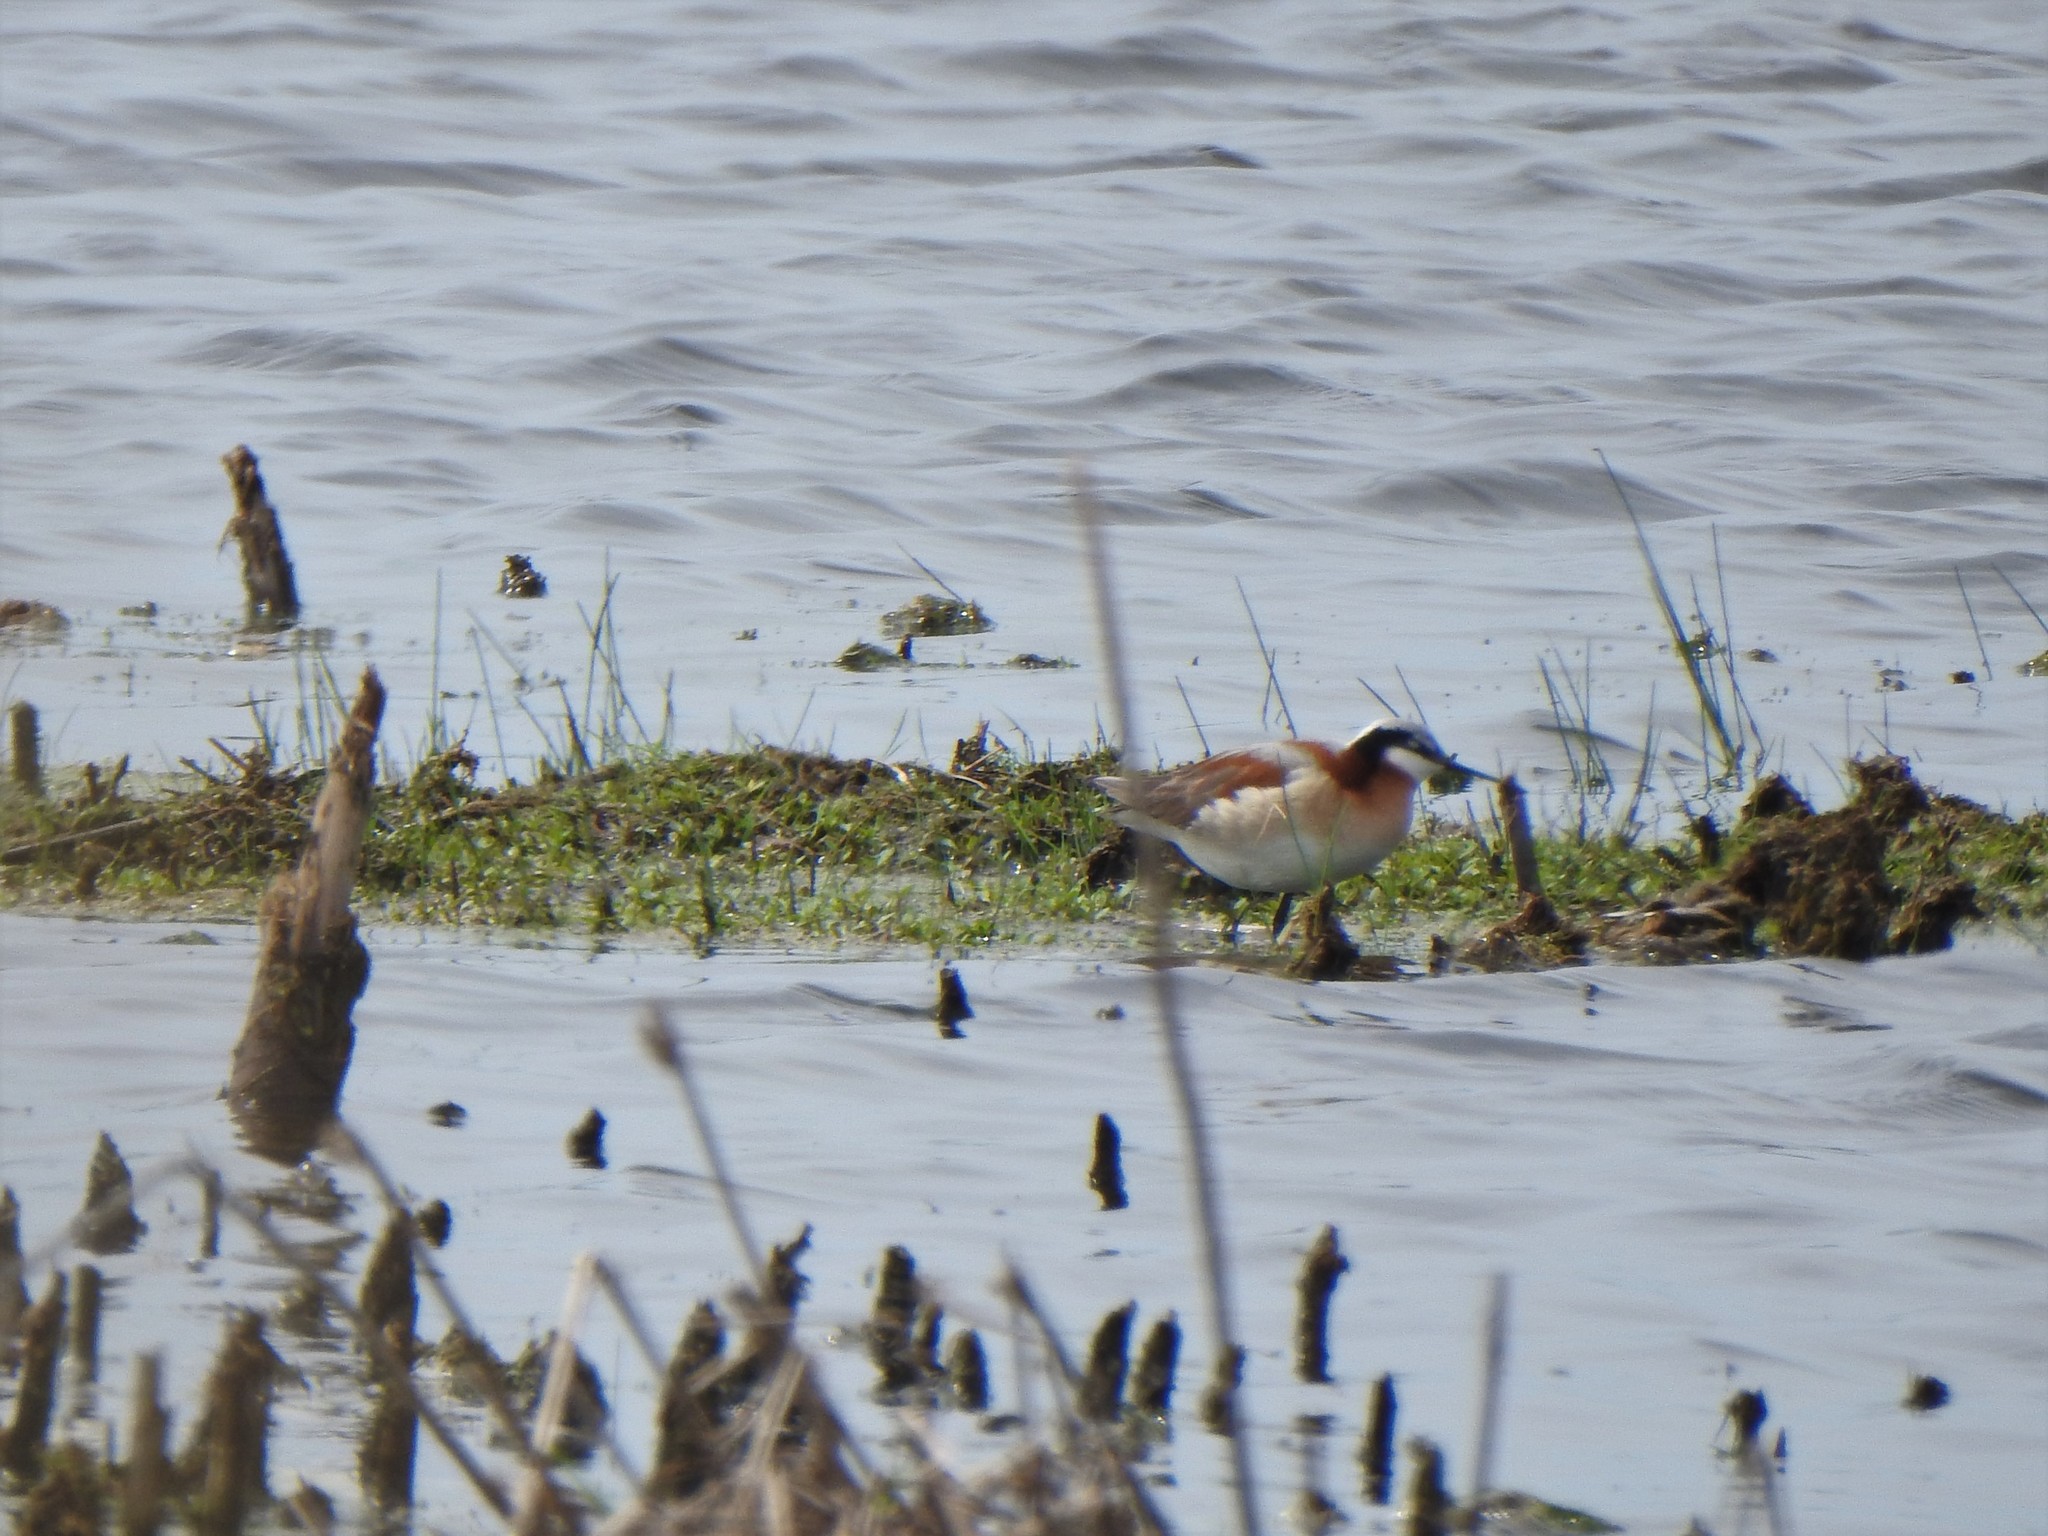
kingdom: Animalia
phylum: Chordata
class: Aves
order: Charadriiformes
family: Scolopacidae
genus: Phalaropus
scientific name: Phalaropus tricolor
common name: Wilson's phalarope
